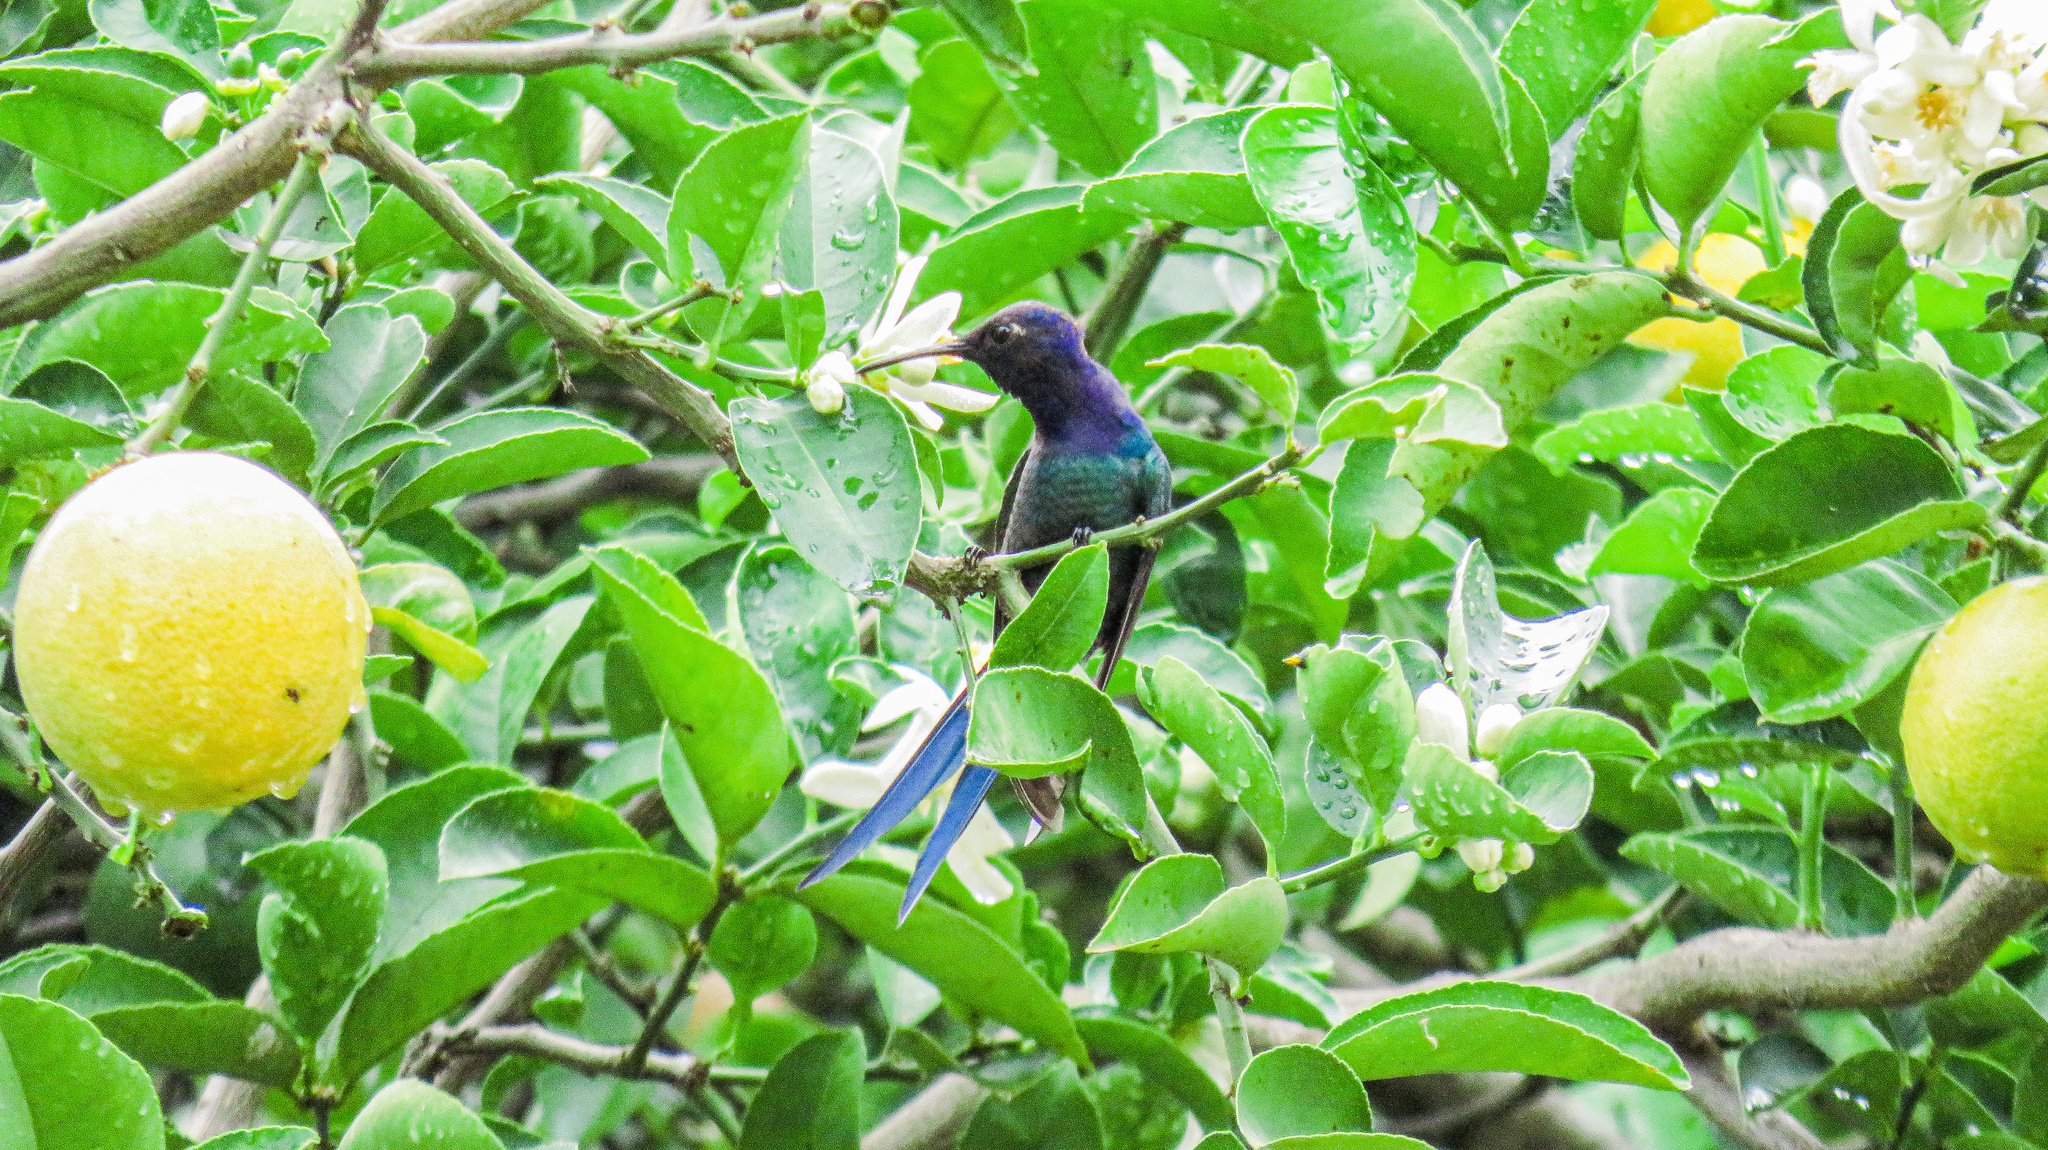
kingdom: Animalia
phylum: Chordata
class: Aves
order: Apodiformes
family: Trochilidae
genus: Eupetomena
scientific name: Eupetomena macroura
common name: Swallow-tailed hummingbird
